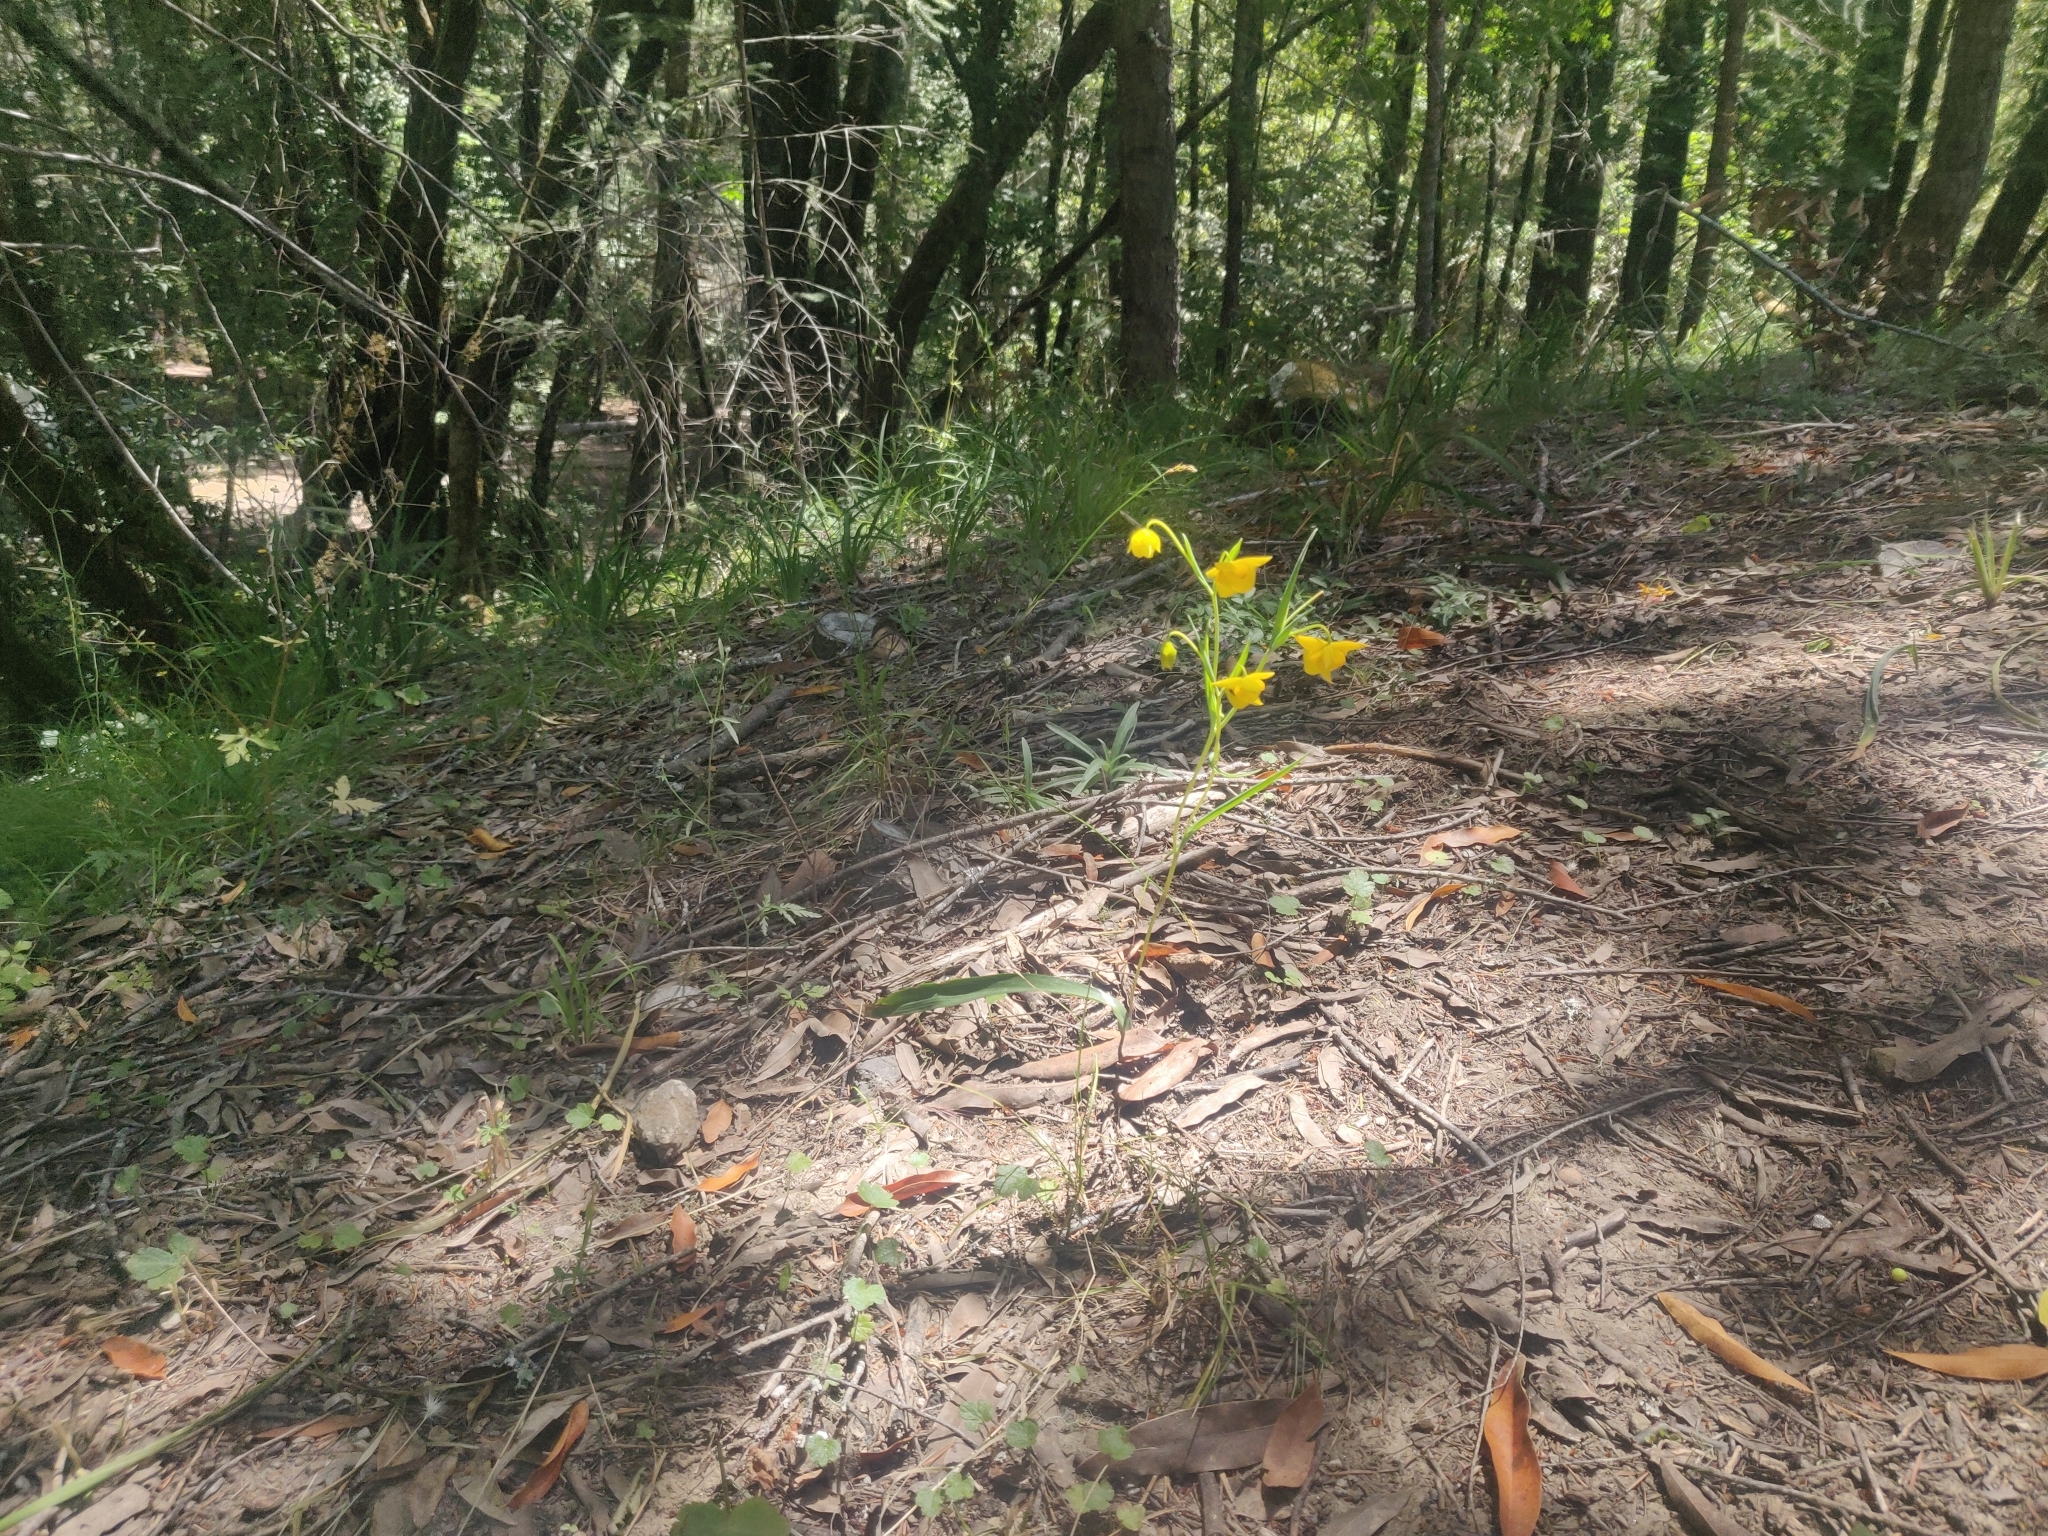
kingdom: Plantae
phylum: Tracheophyta
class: Liliopsida
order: Liliales
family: Liliaceae
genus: Calochortus
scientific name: Calochortus amabilis
